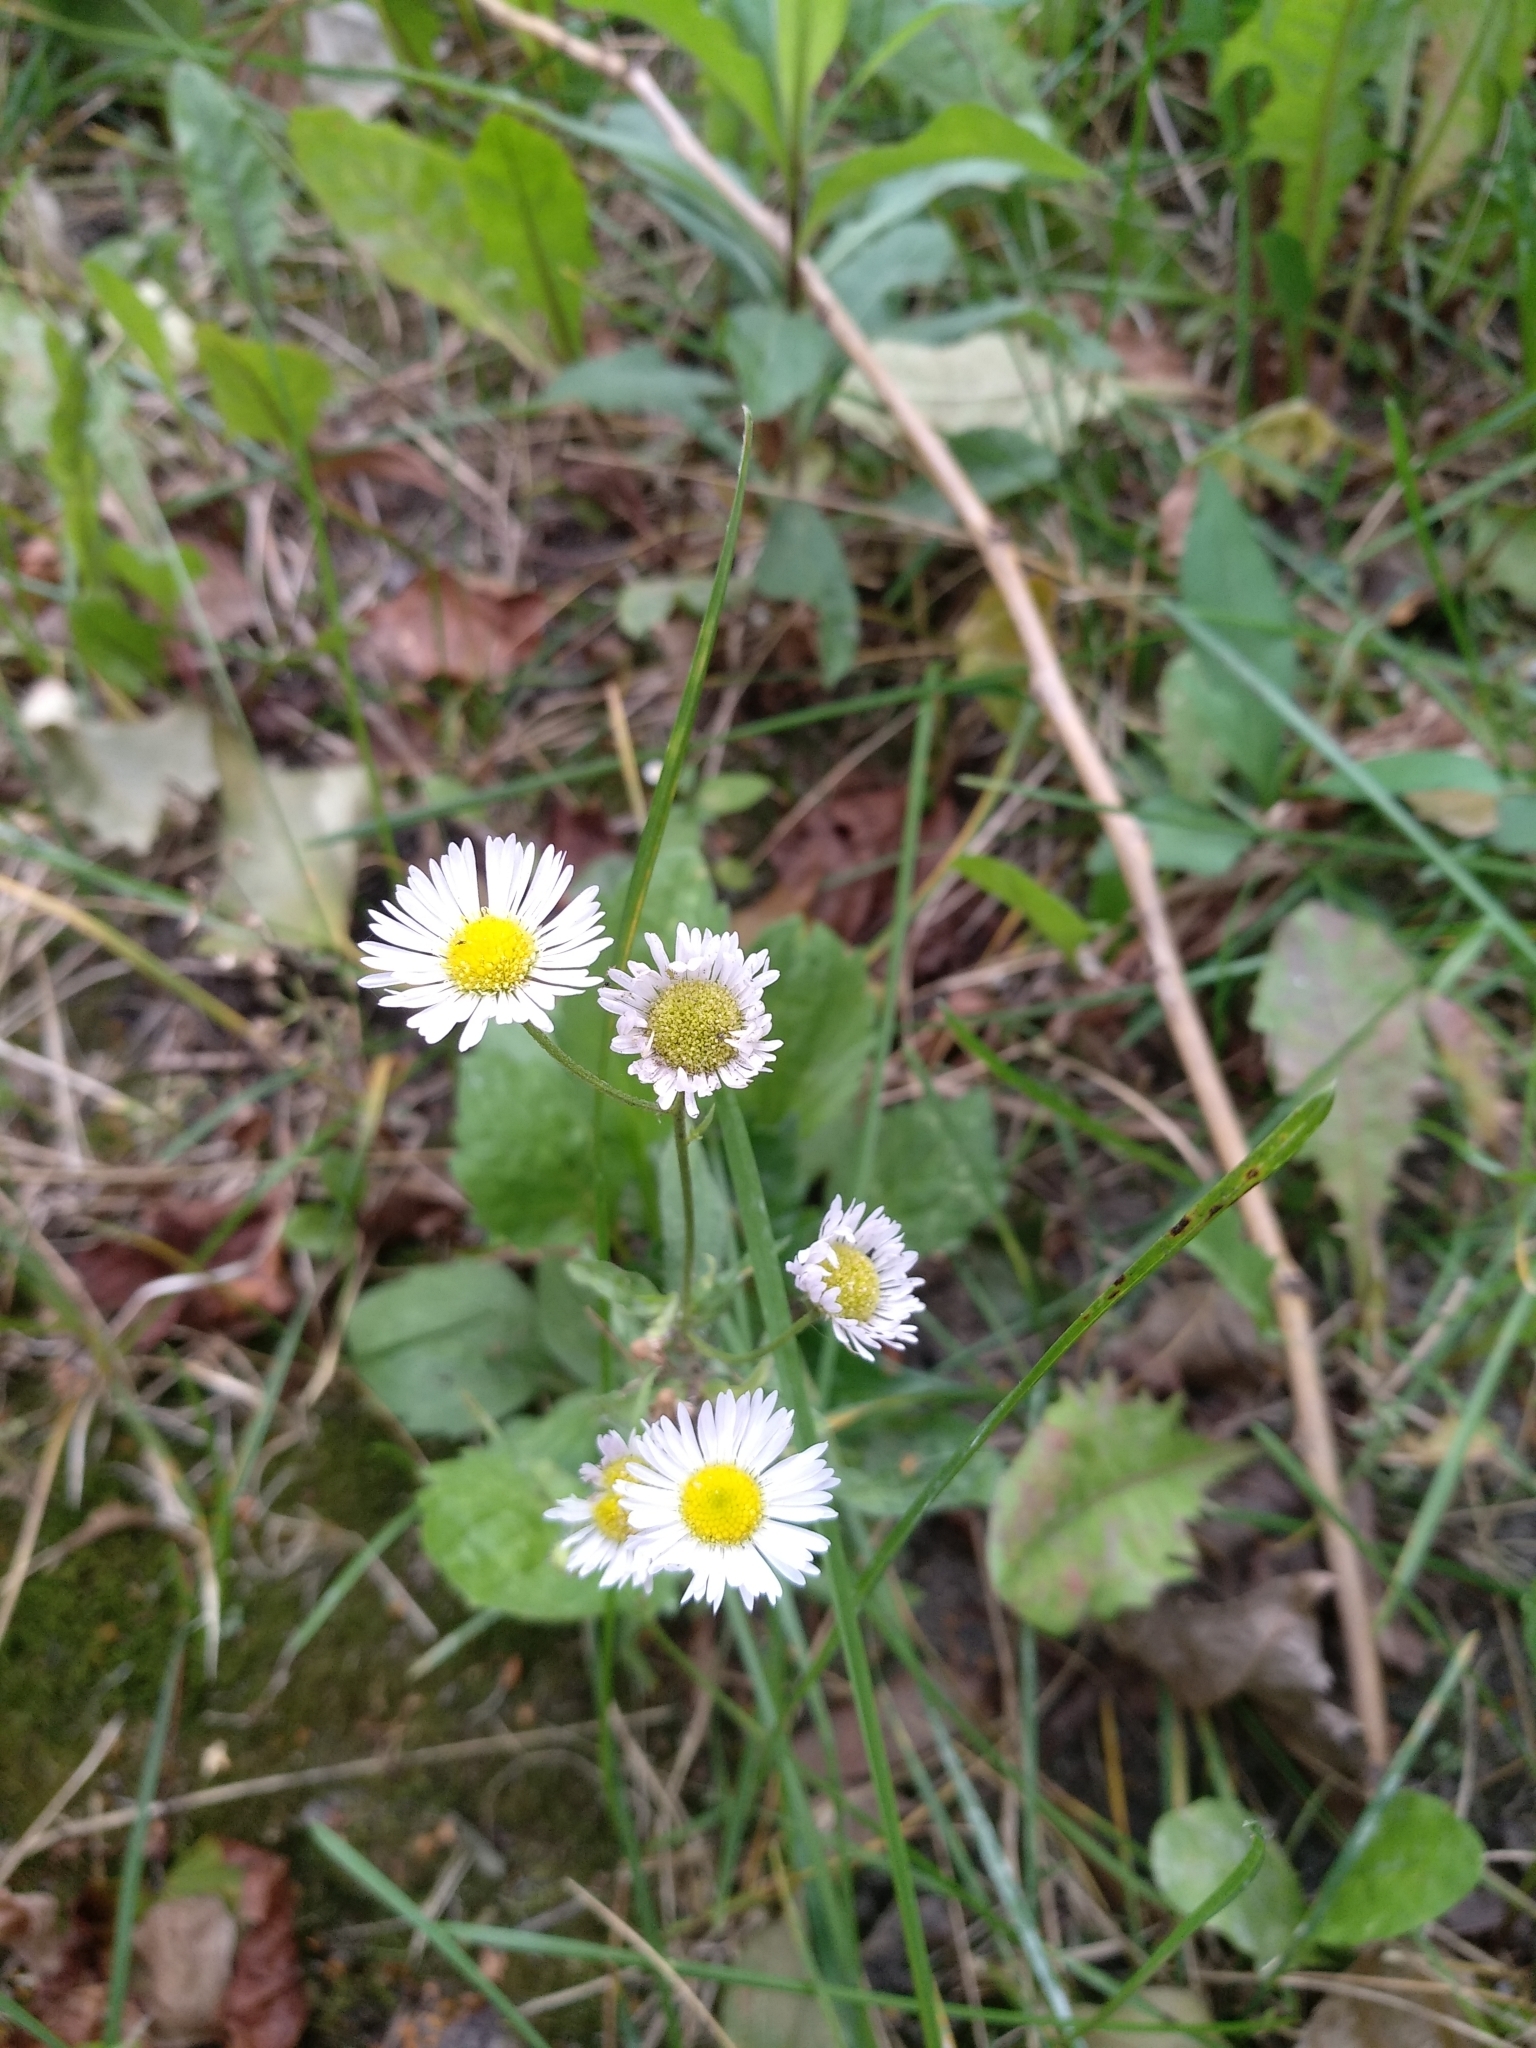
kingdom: Plantae
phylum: Tracheophyta
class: Magnoliopsida
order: Asterales
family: Asteraceae
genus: Erigeron
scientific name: Erigeron annuus
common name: Tall fleabane
